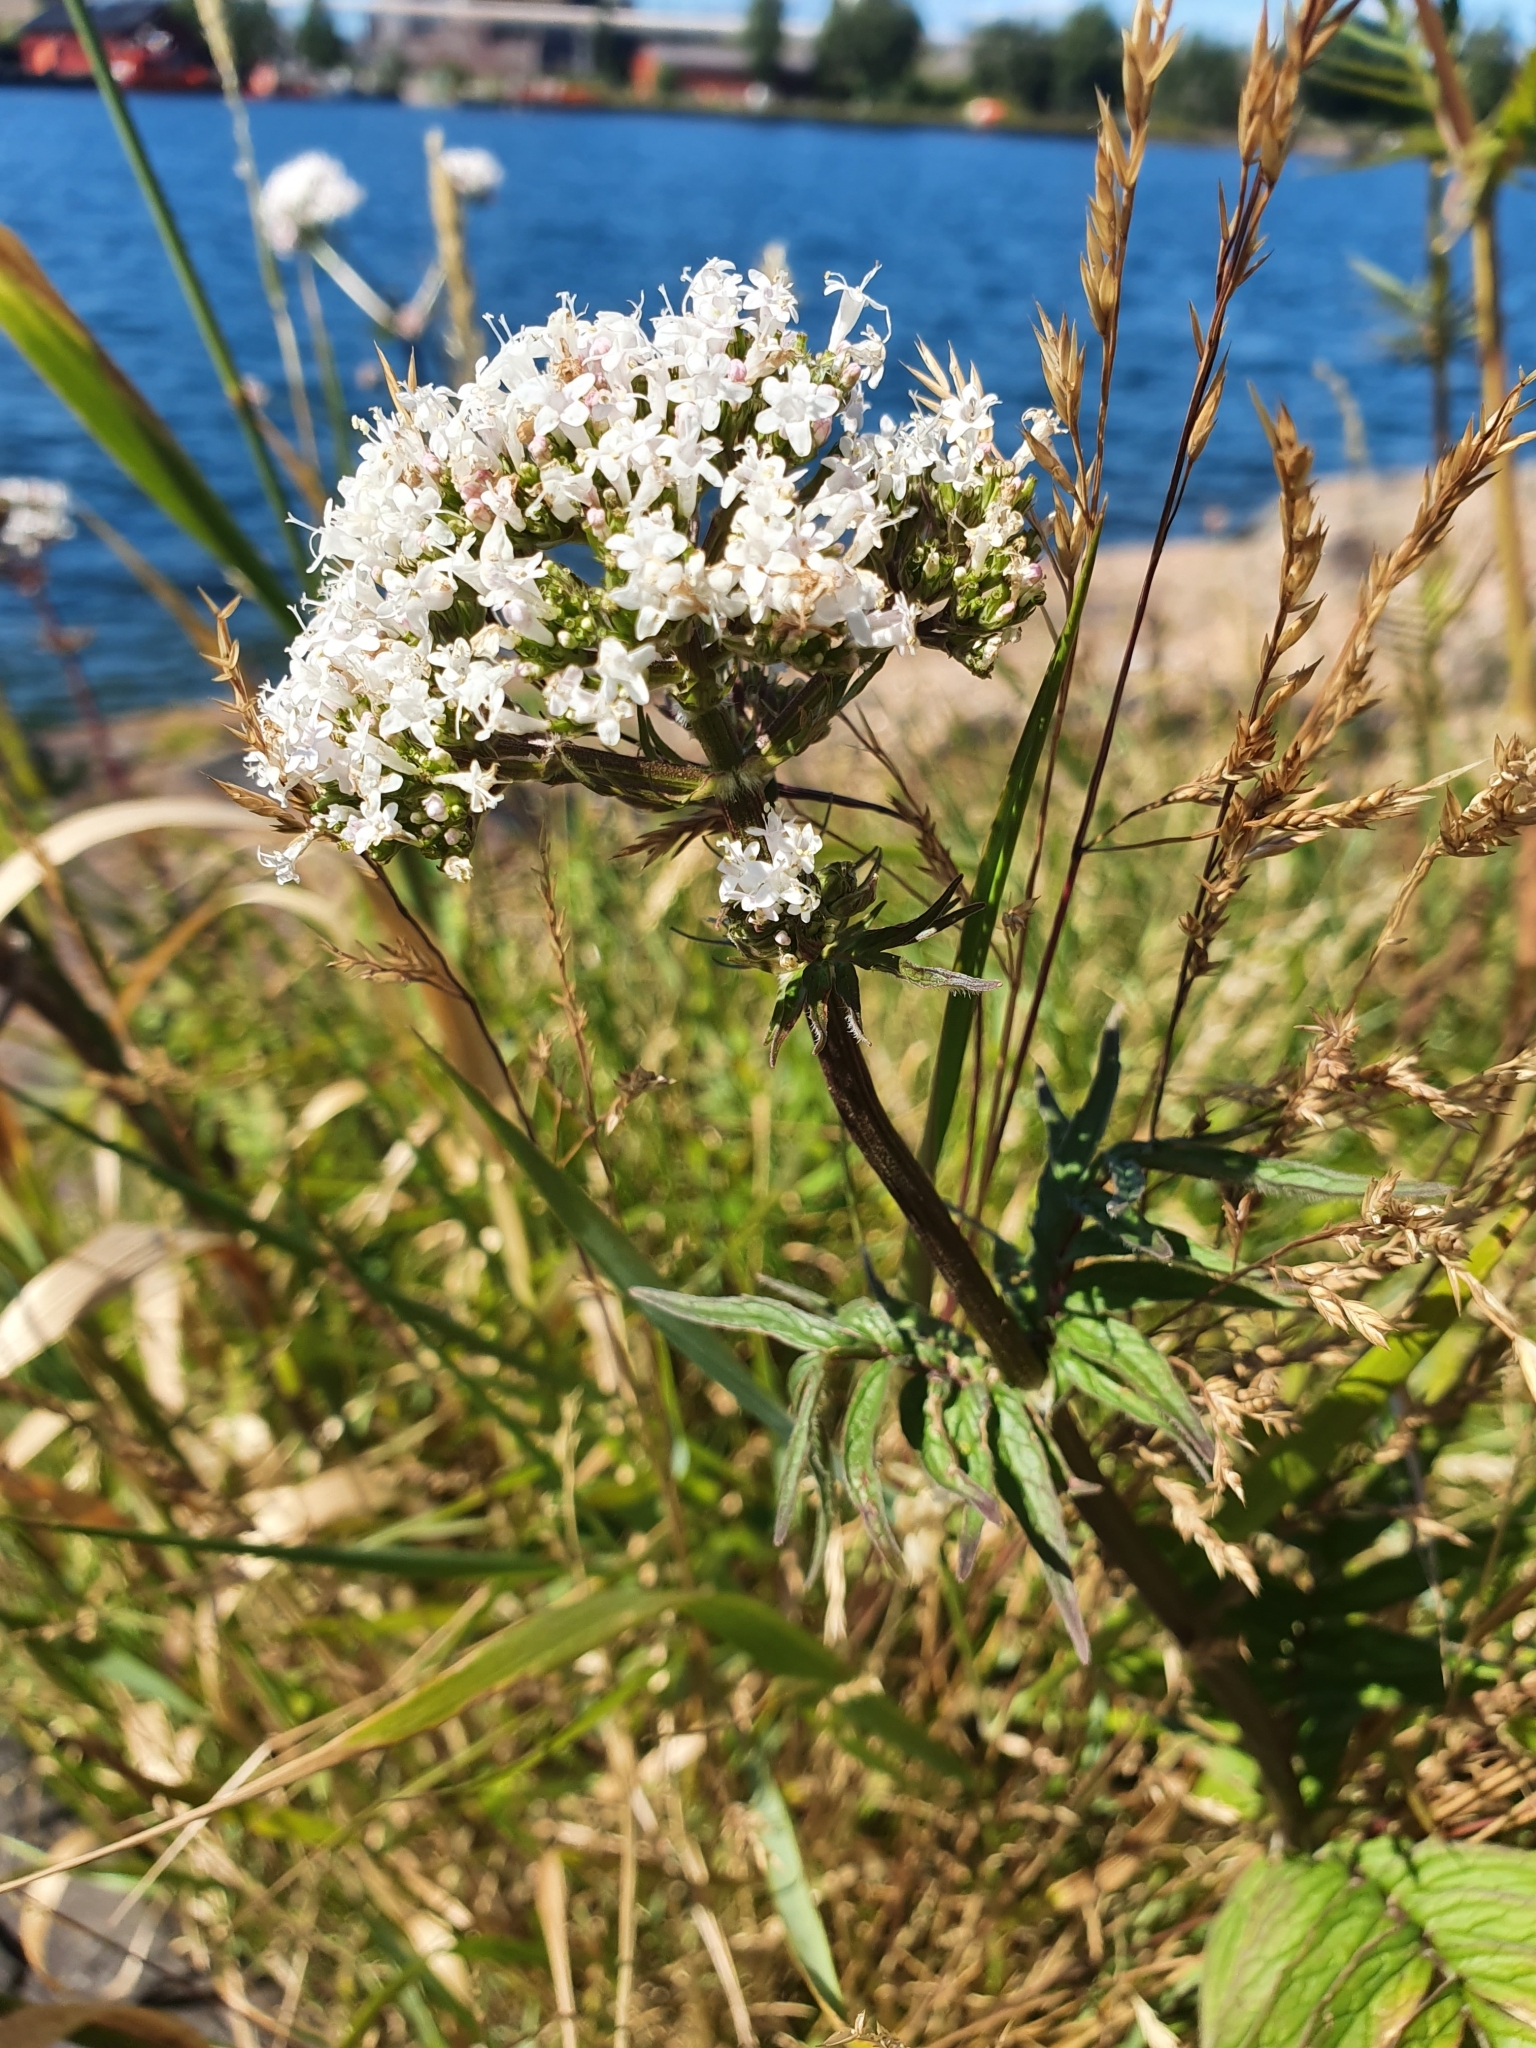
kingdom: Plantae
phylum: Tracheophyta
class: Magnoliopsida
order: Dipsacales
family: Caprifoliaceae
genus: Valeriana
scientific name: Valeriana officinalis
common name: Common valerian
